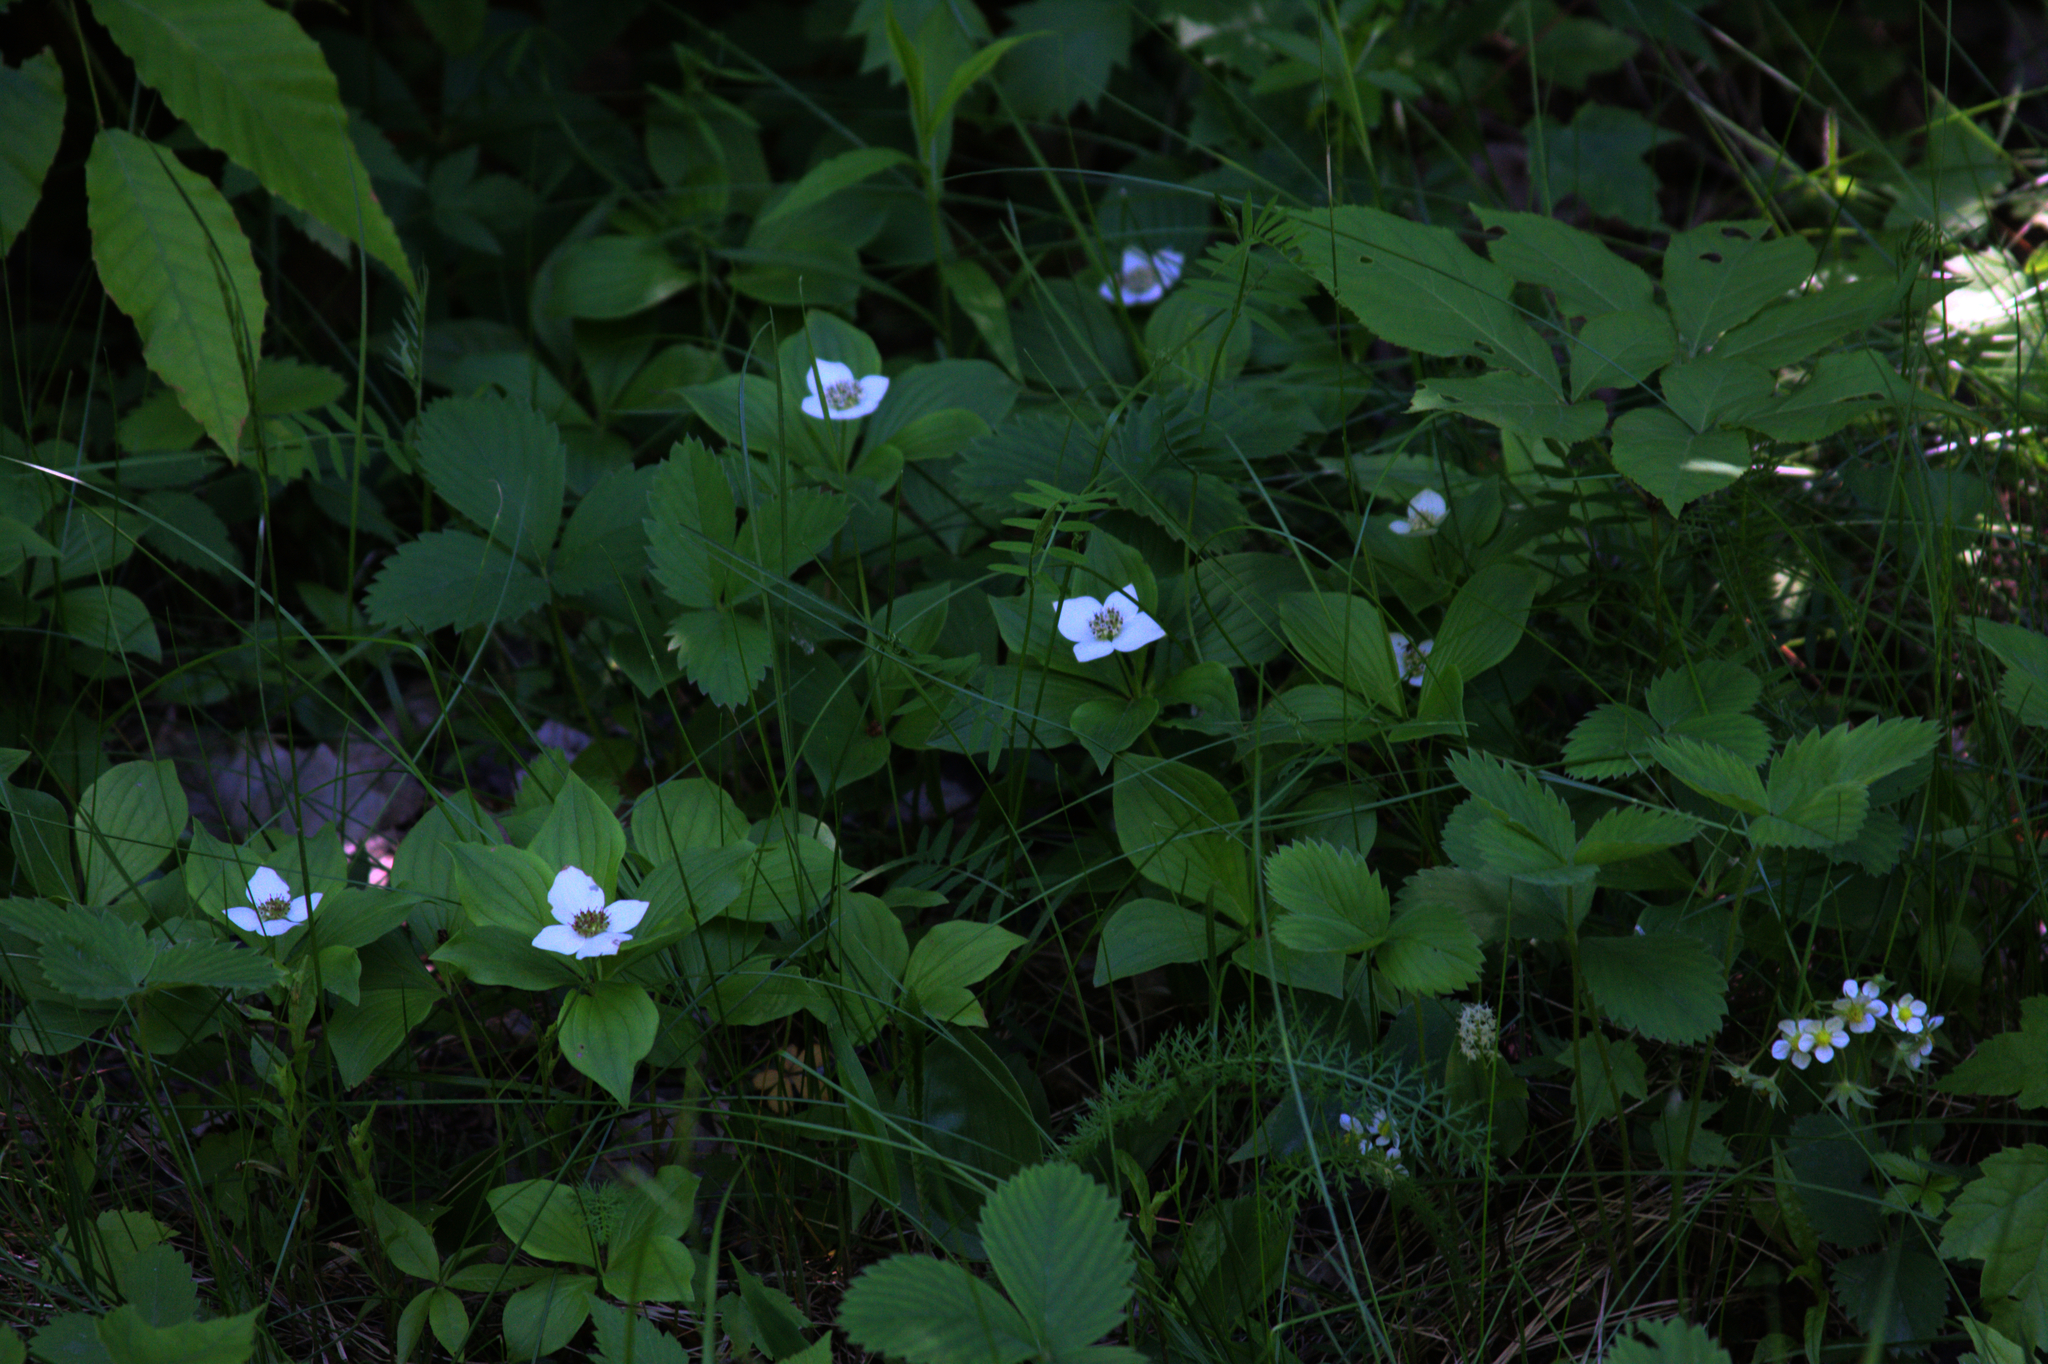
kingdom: Plantae
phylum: Tracheophyta
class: Magnoliopsida
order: Cornales
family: Cornaceae
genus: Cornus
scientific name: Cornus canadensis
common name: Creeping dogwood
